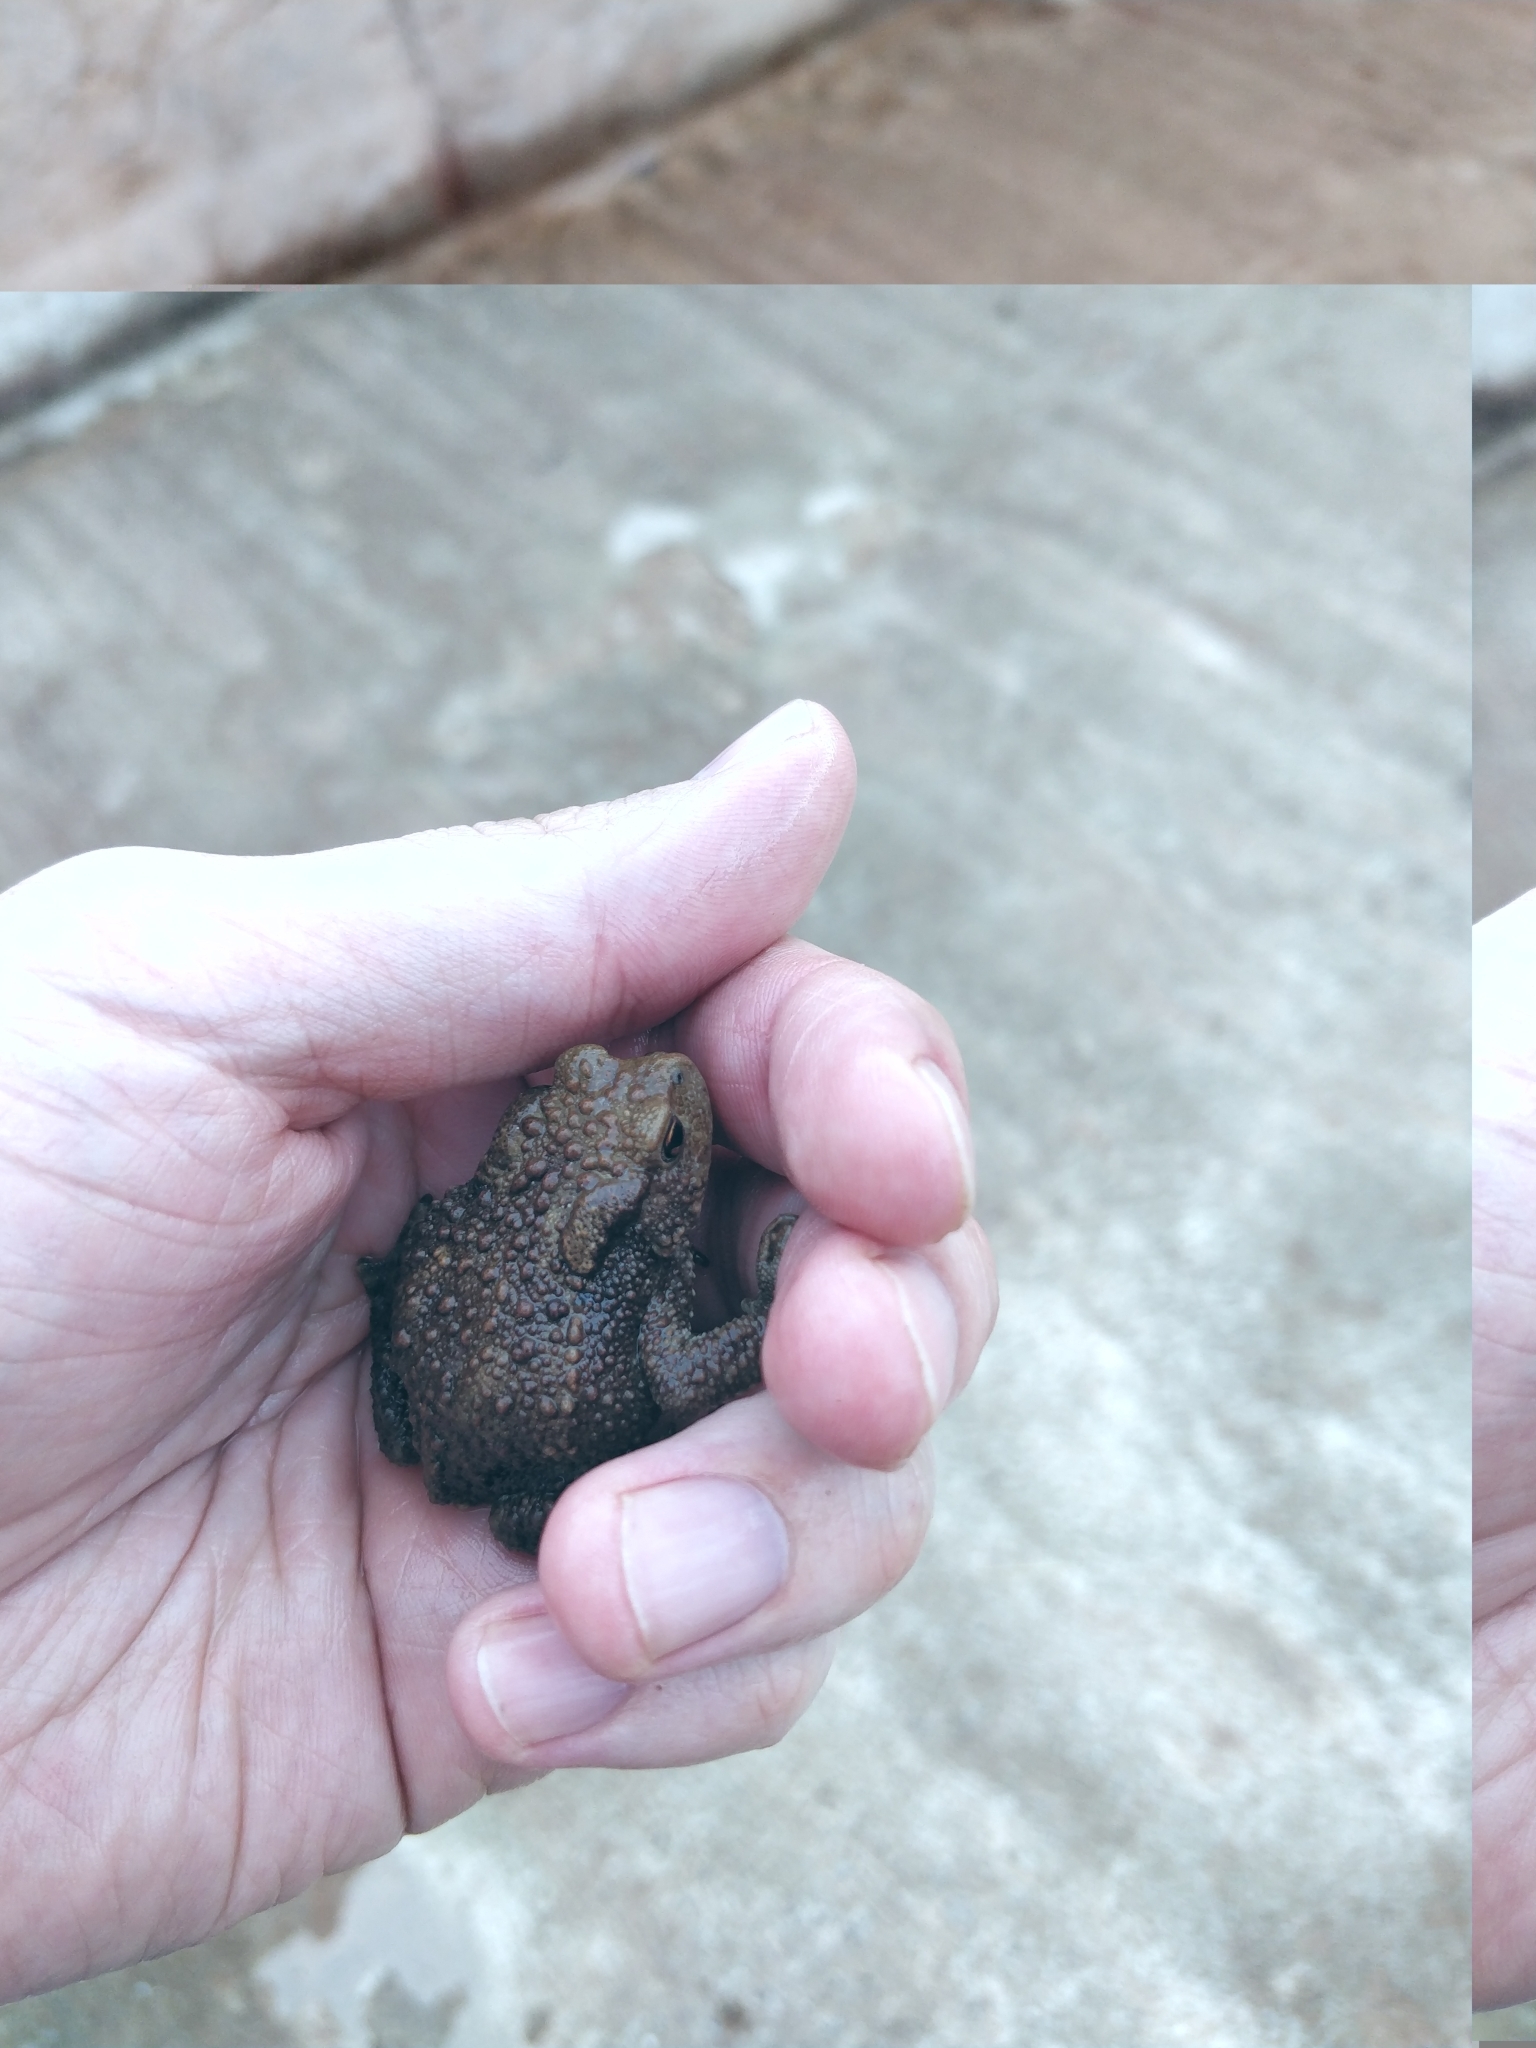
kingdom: Animalia
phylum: Chordata
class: Amphibia
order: Anura
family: Bufonidae
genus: Bufo
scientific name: Bufo bufo
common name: Common toad
